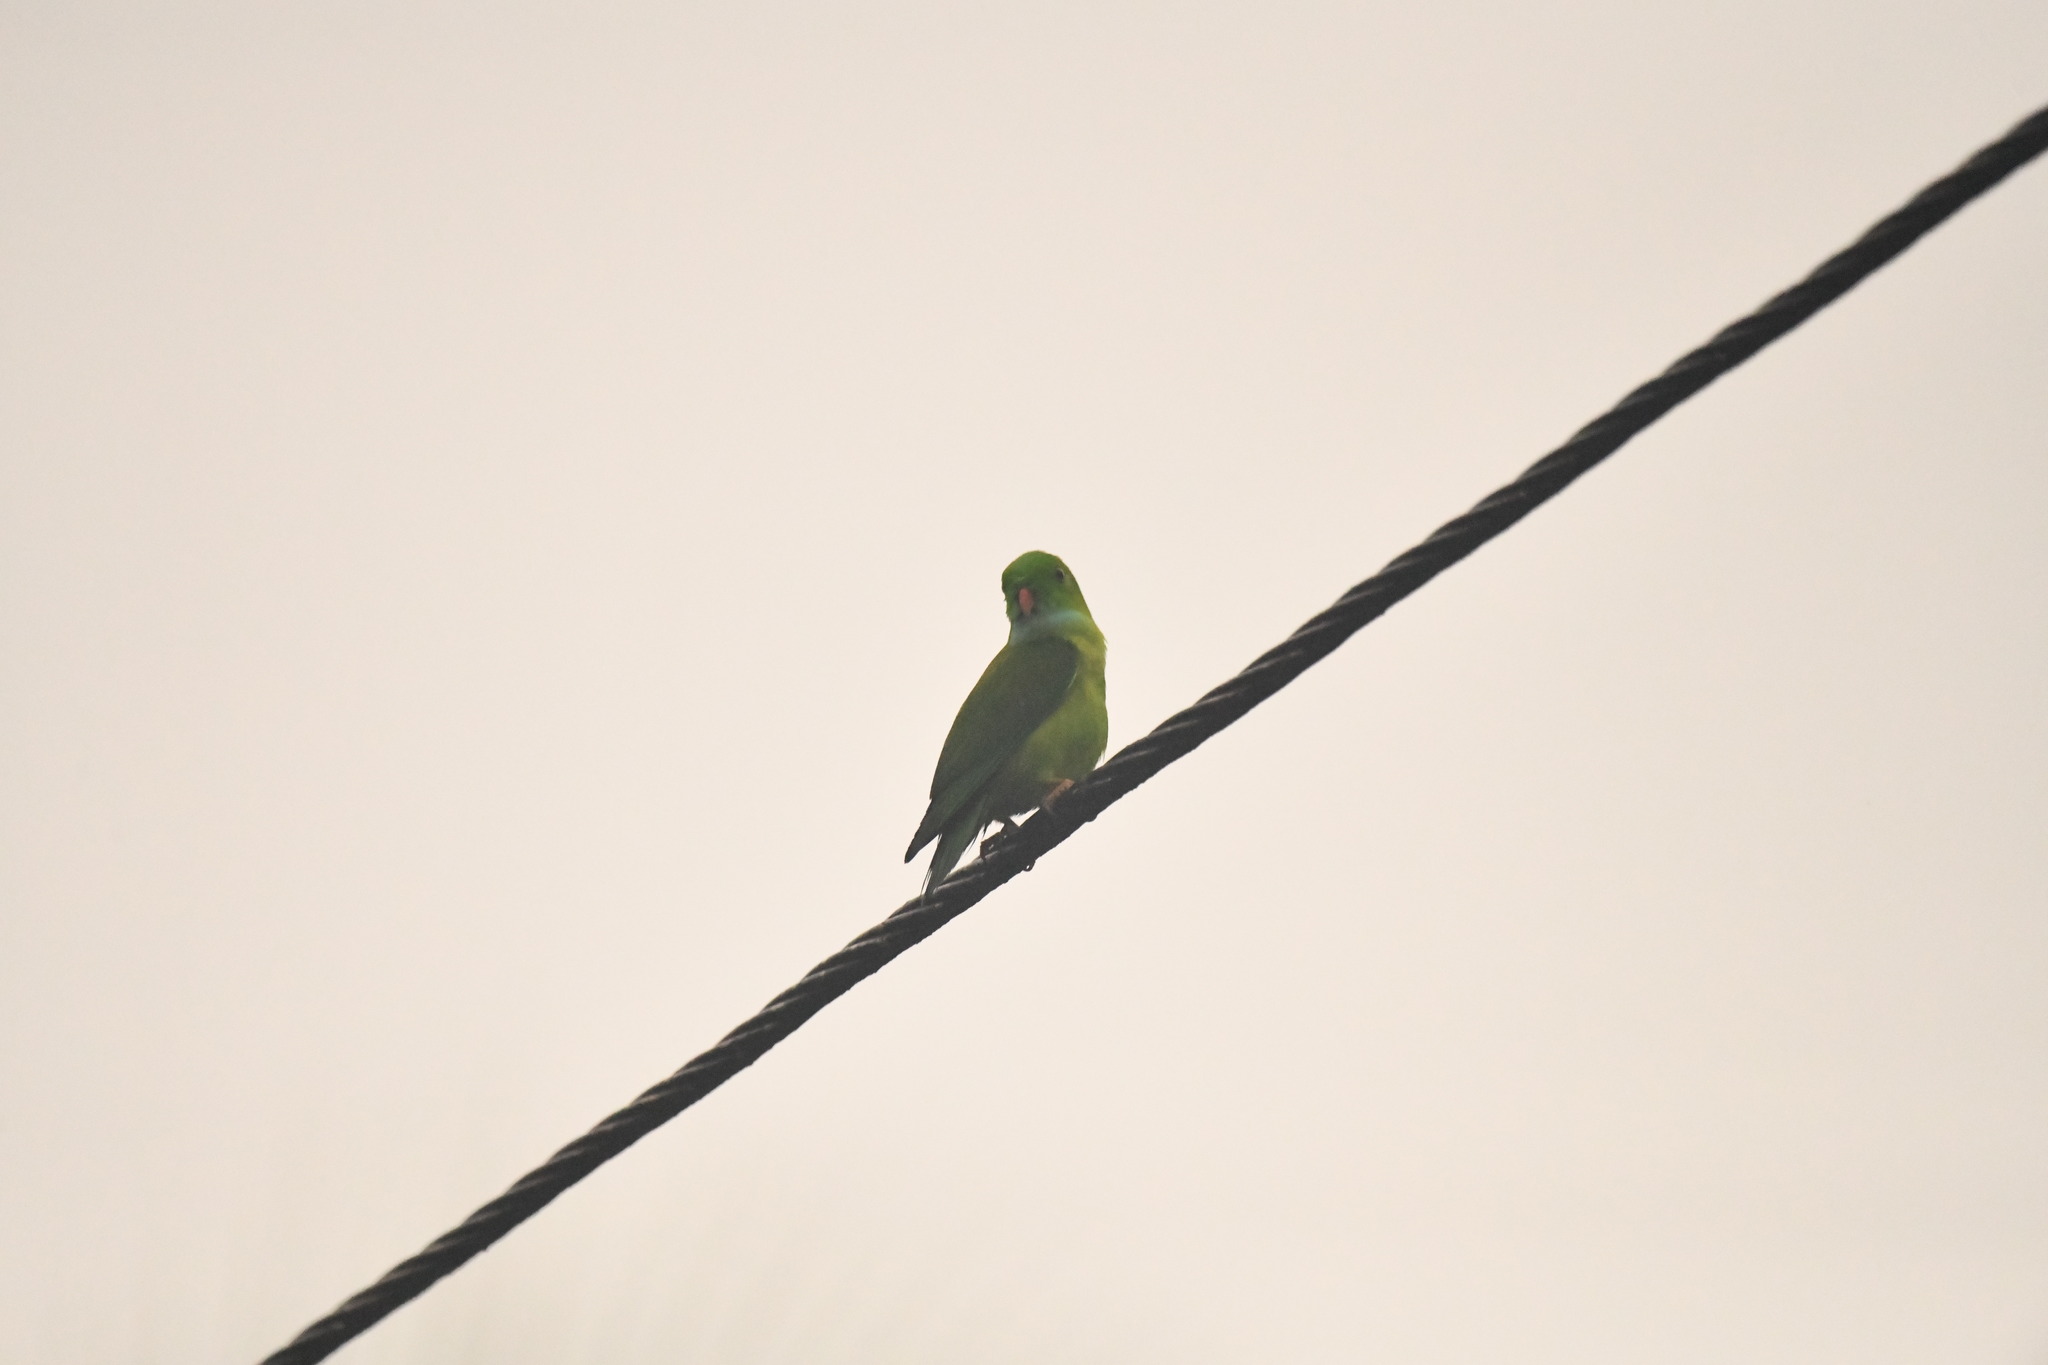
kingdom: Animalia
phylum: Chordata
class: Aves
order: Psittaciformes
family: Psittacidae
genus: Loriculus
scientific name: Loriculus vernalis
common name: Vernal hanging parrot
